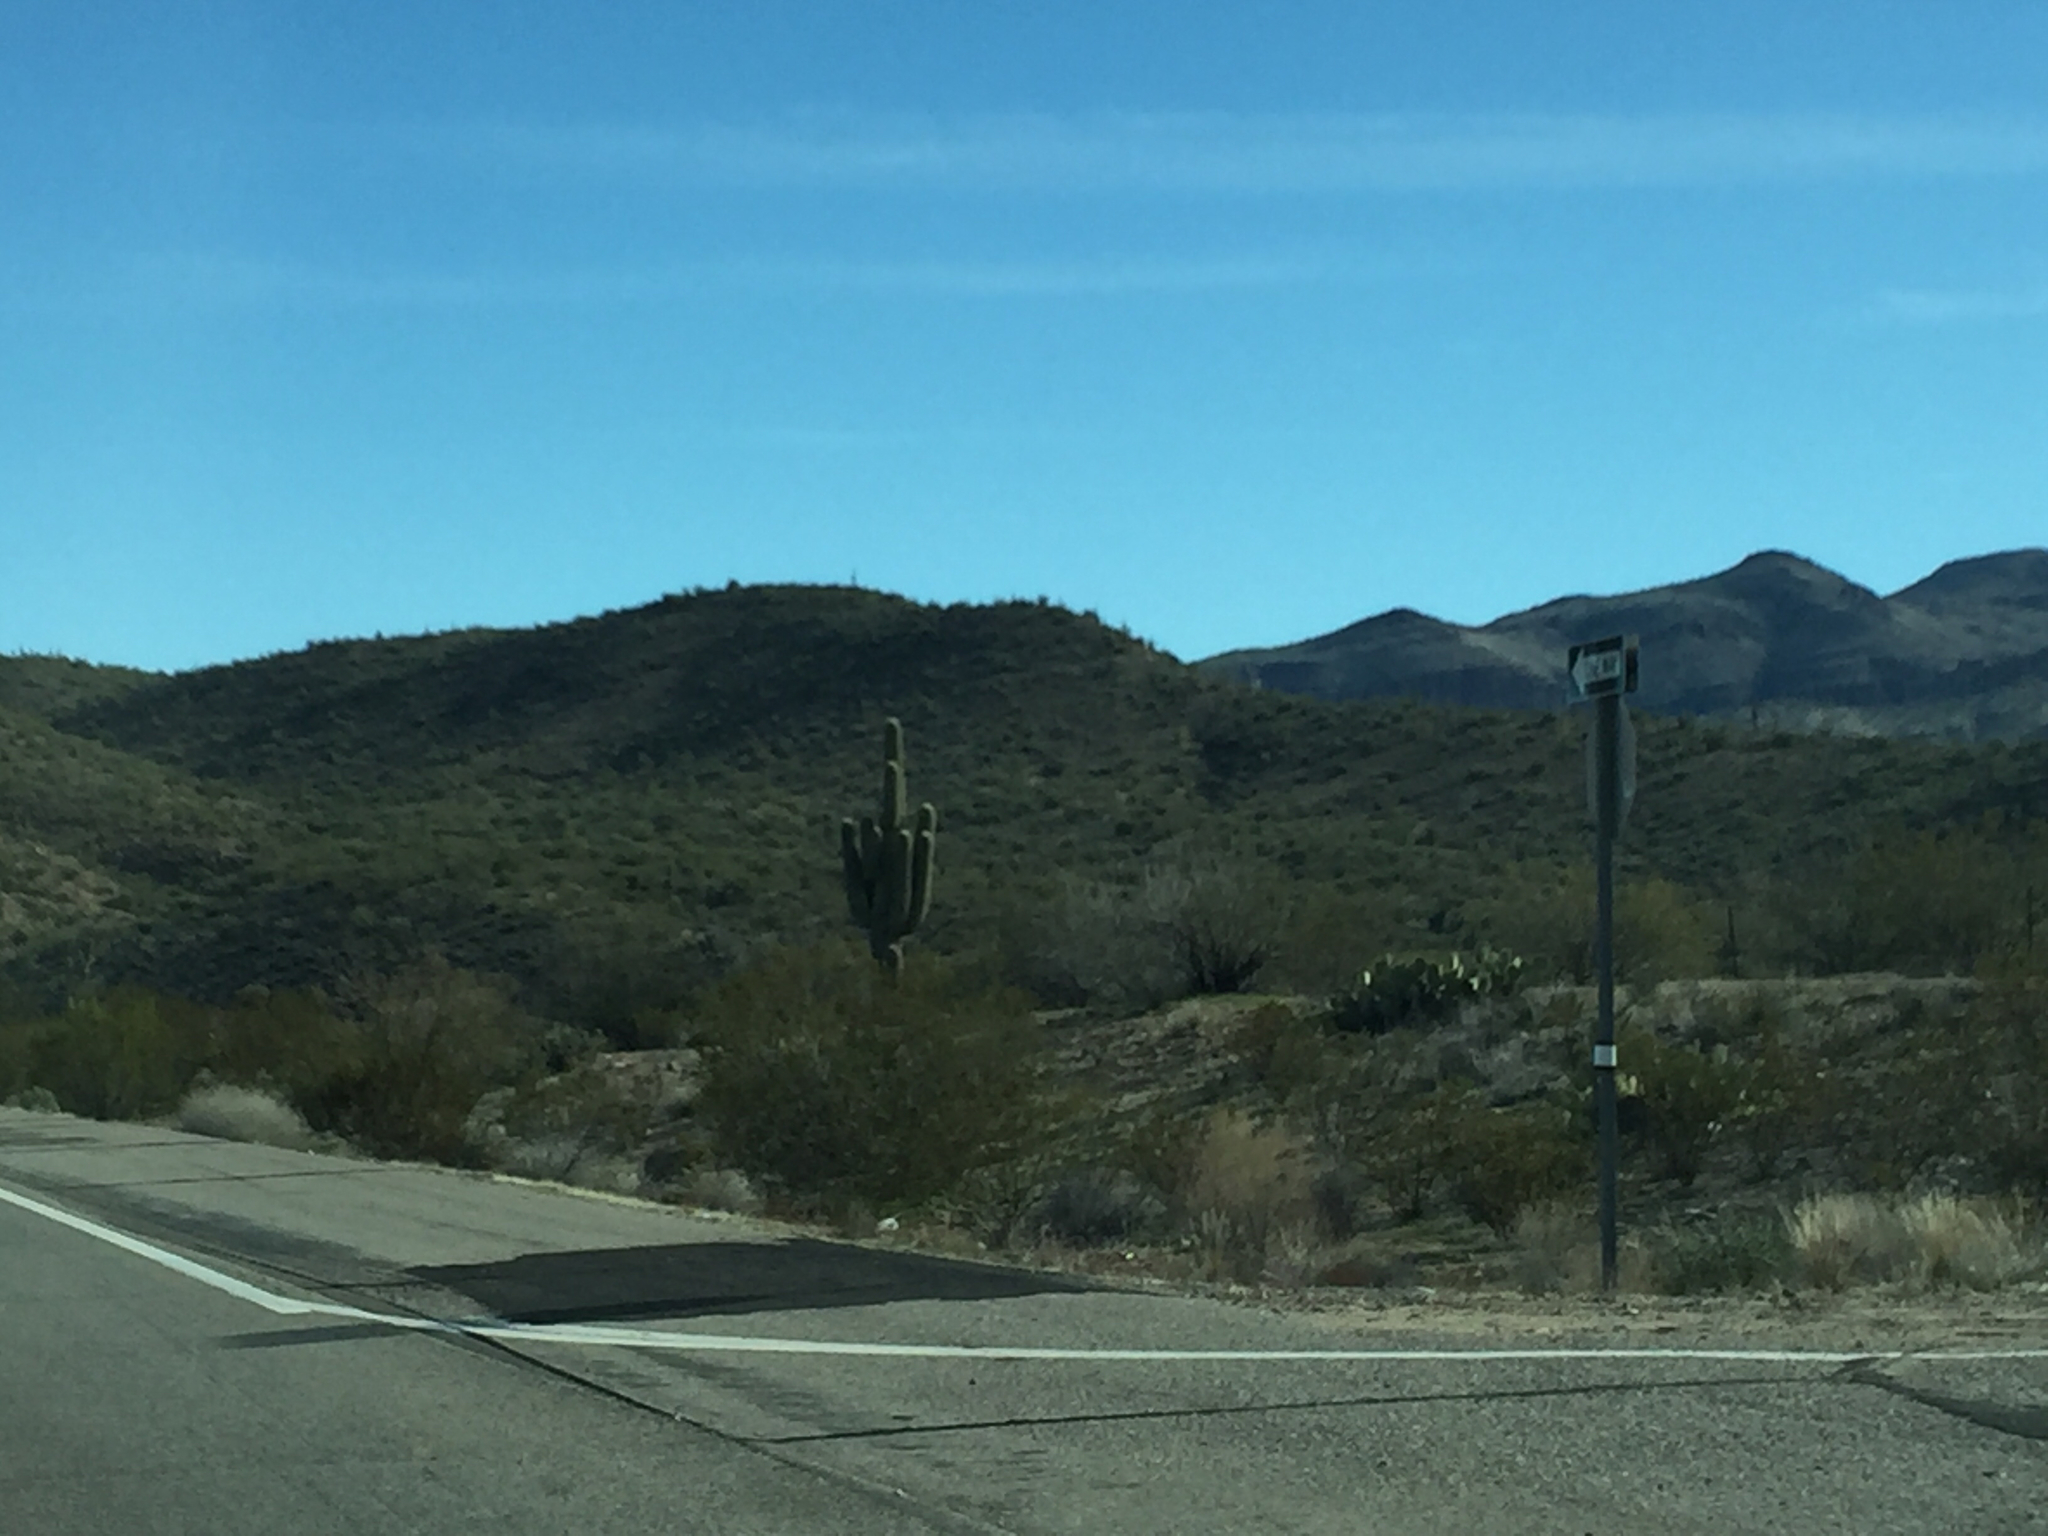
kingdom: Plantae
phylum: Tracheophyta
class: Magnoliopsida
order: Caryophyllales
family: Cactaceae
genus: Carnegiea
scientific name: Carnegiea gigantea
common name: Saguaro
